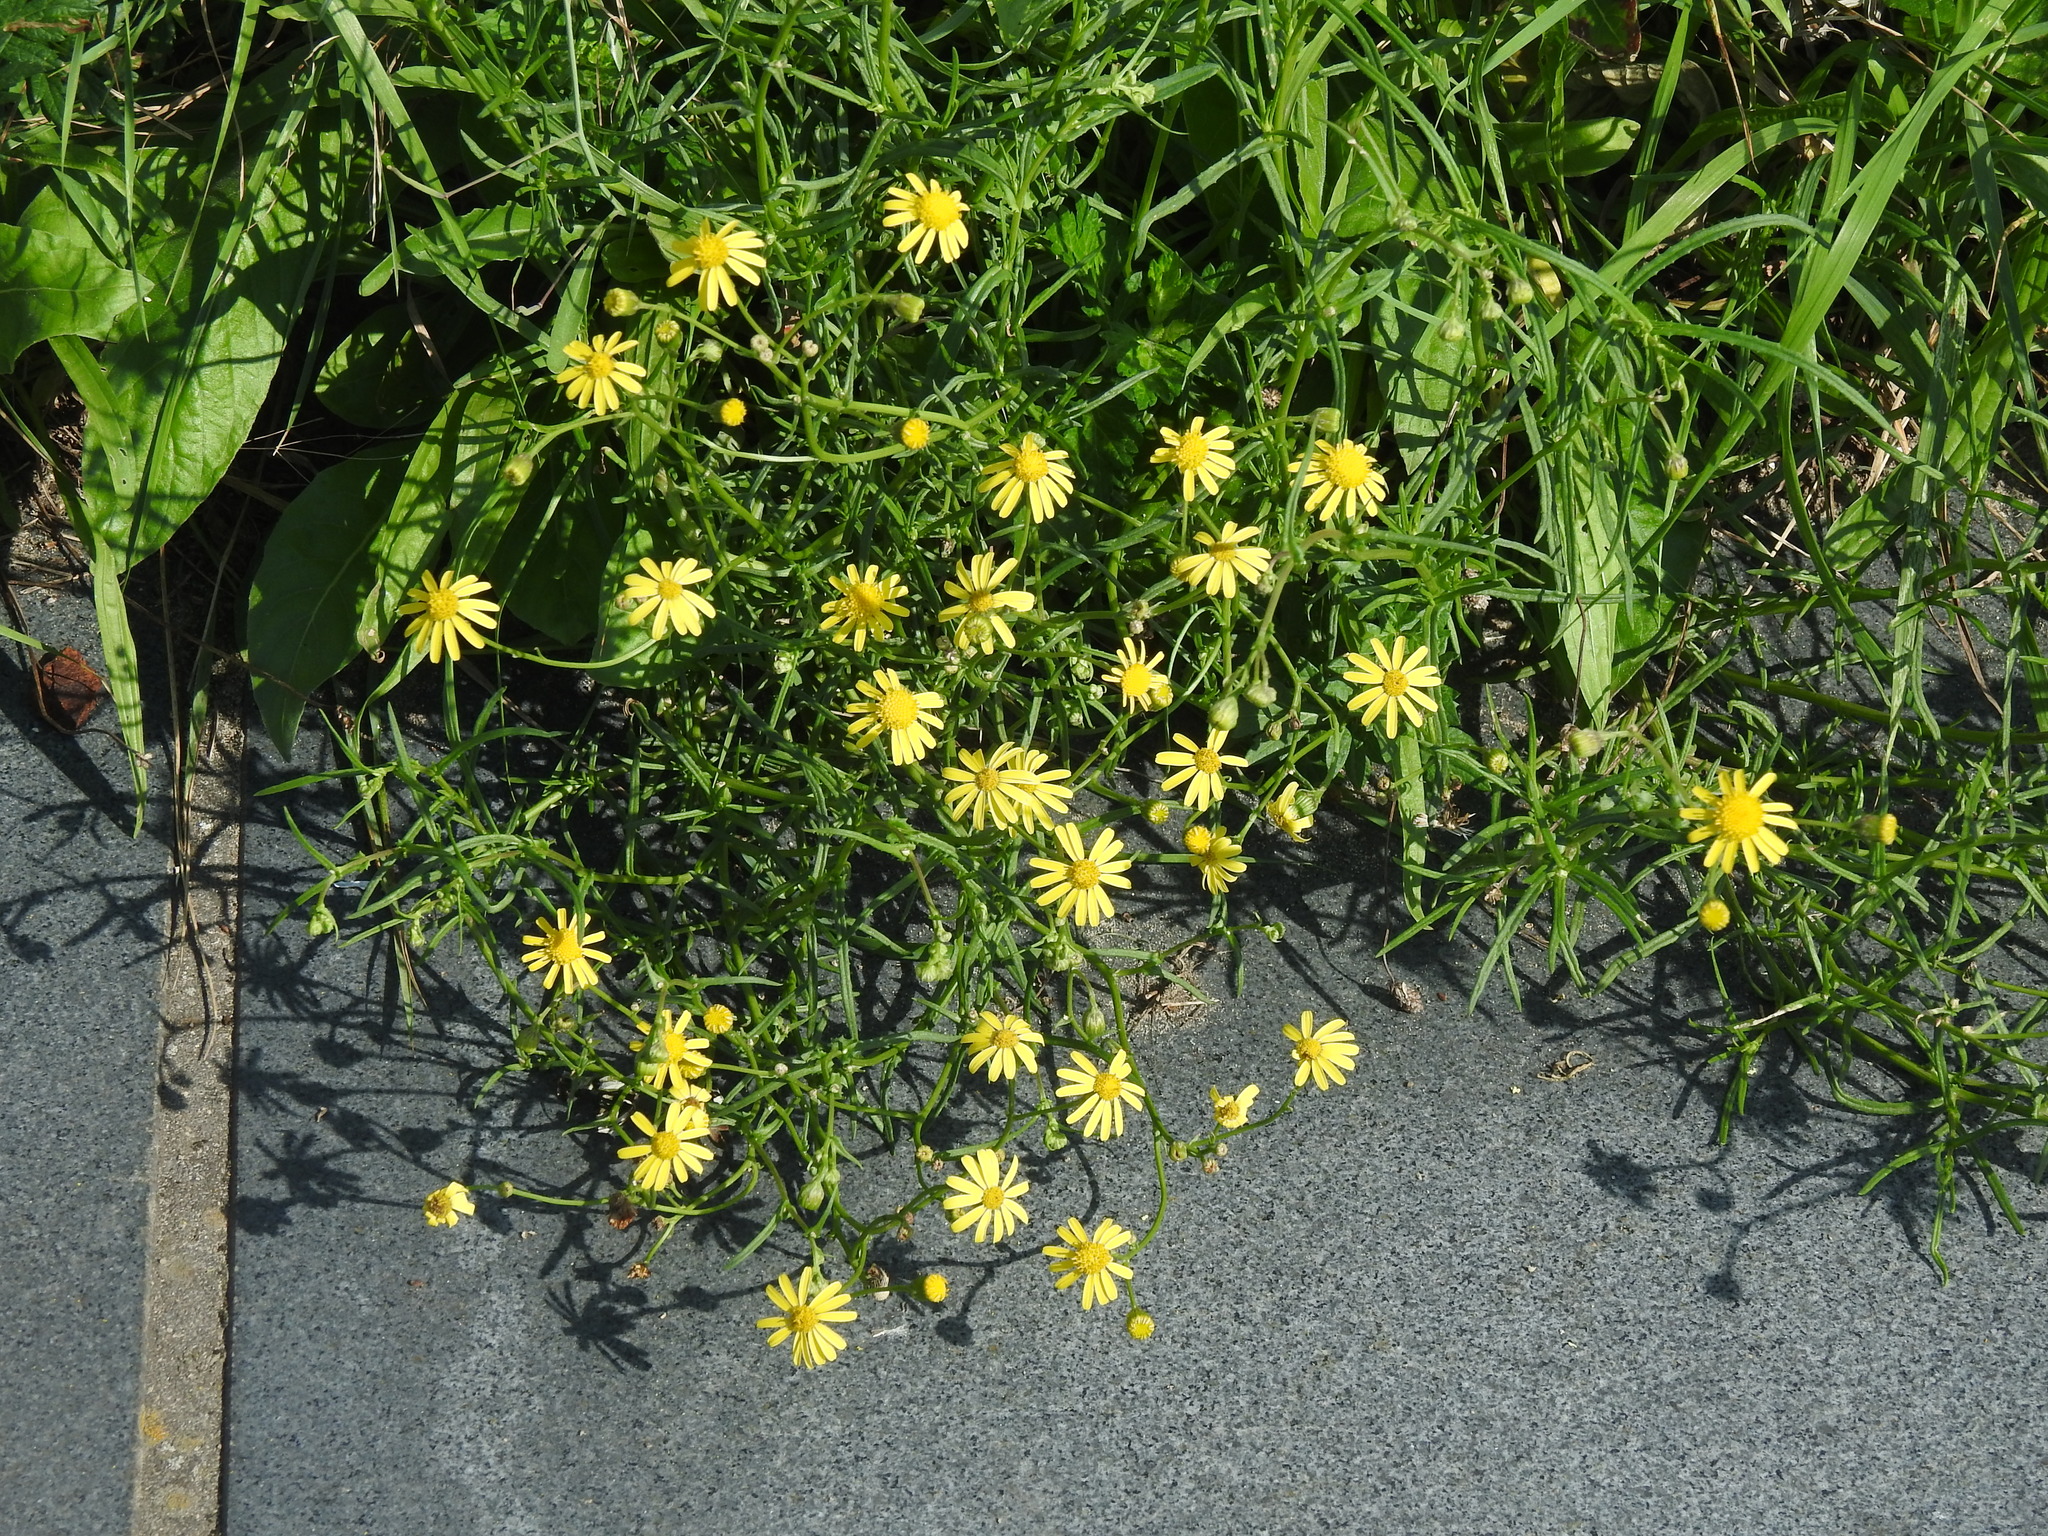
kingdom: Plantae
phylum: Tracheophyta
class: Magnoliopsida
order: Asterales
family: Asteraceae
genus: Senecio
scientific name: Senecio inaequidens
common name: Narrow-leaved ragwort
